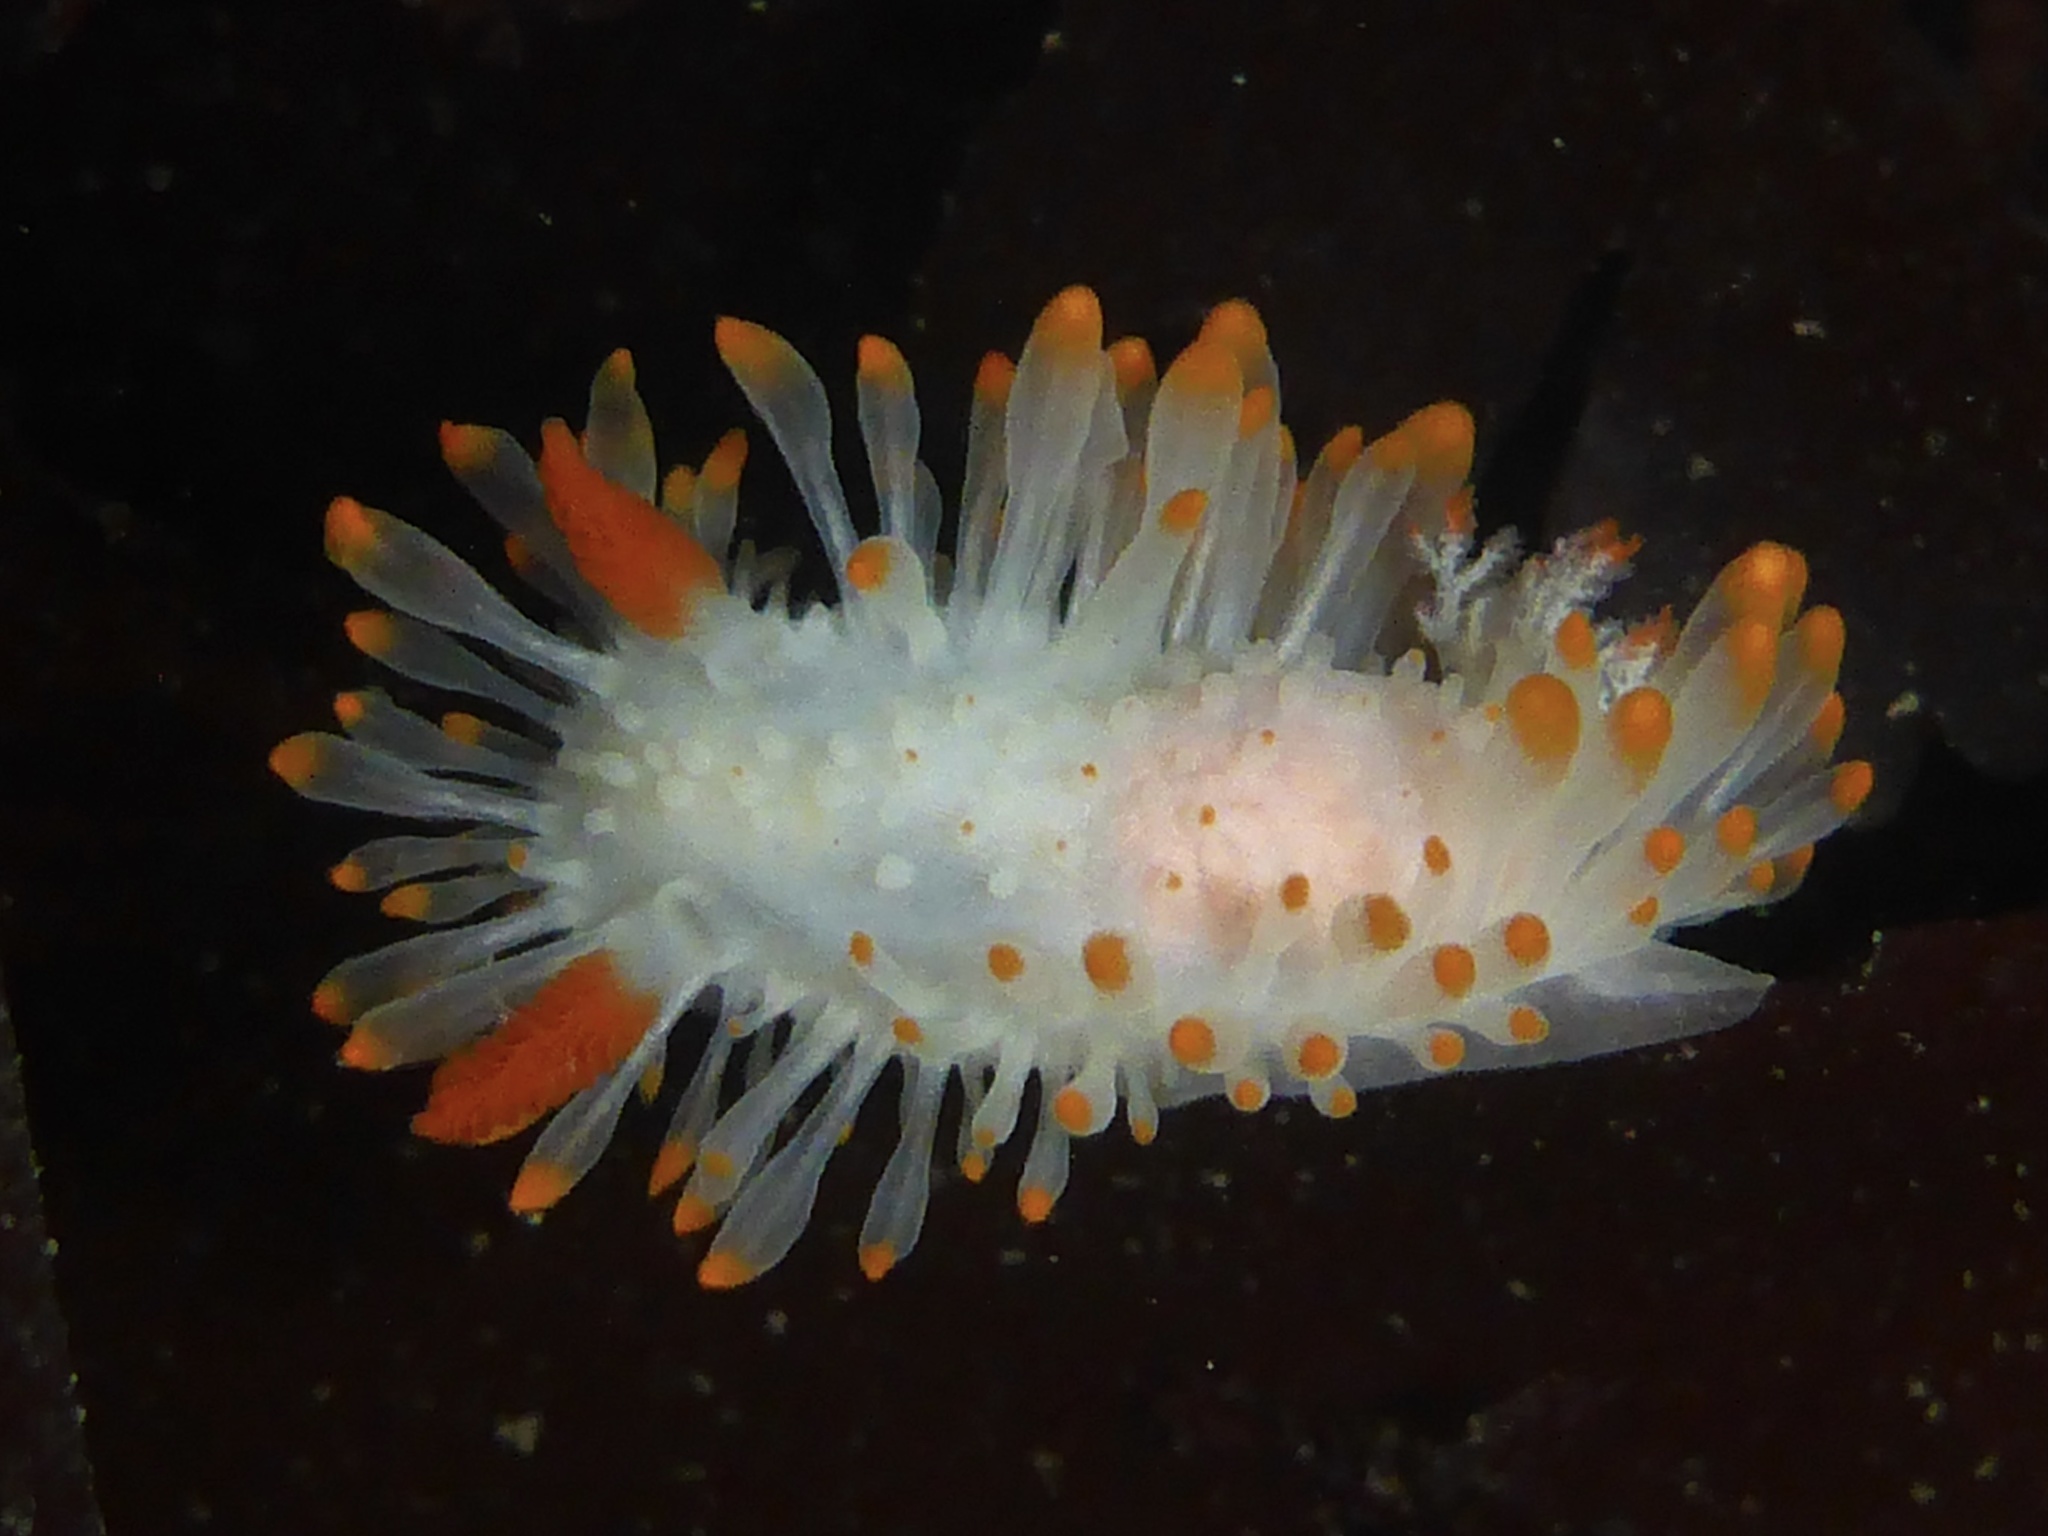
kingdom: Animalia
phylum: Mollusca
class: Gastropoda
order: Nudibranchia
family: Polyceridae
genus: Limacia
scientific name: Limacia cockerelli
